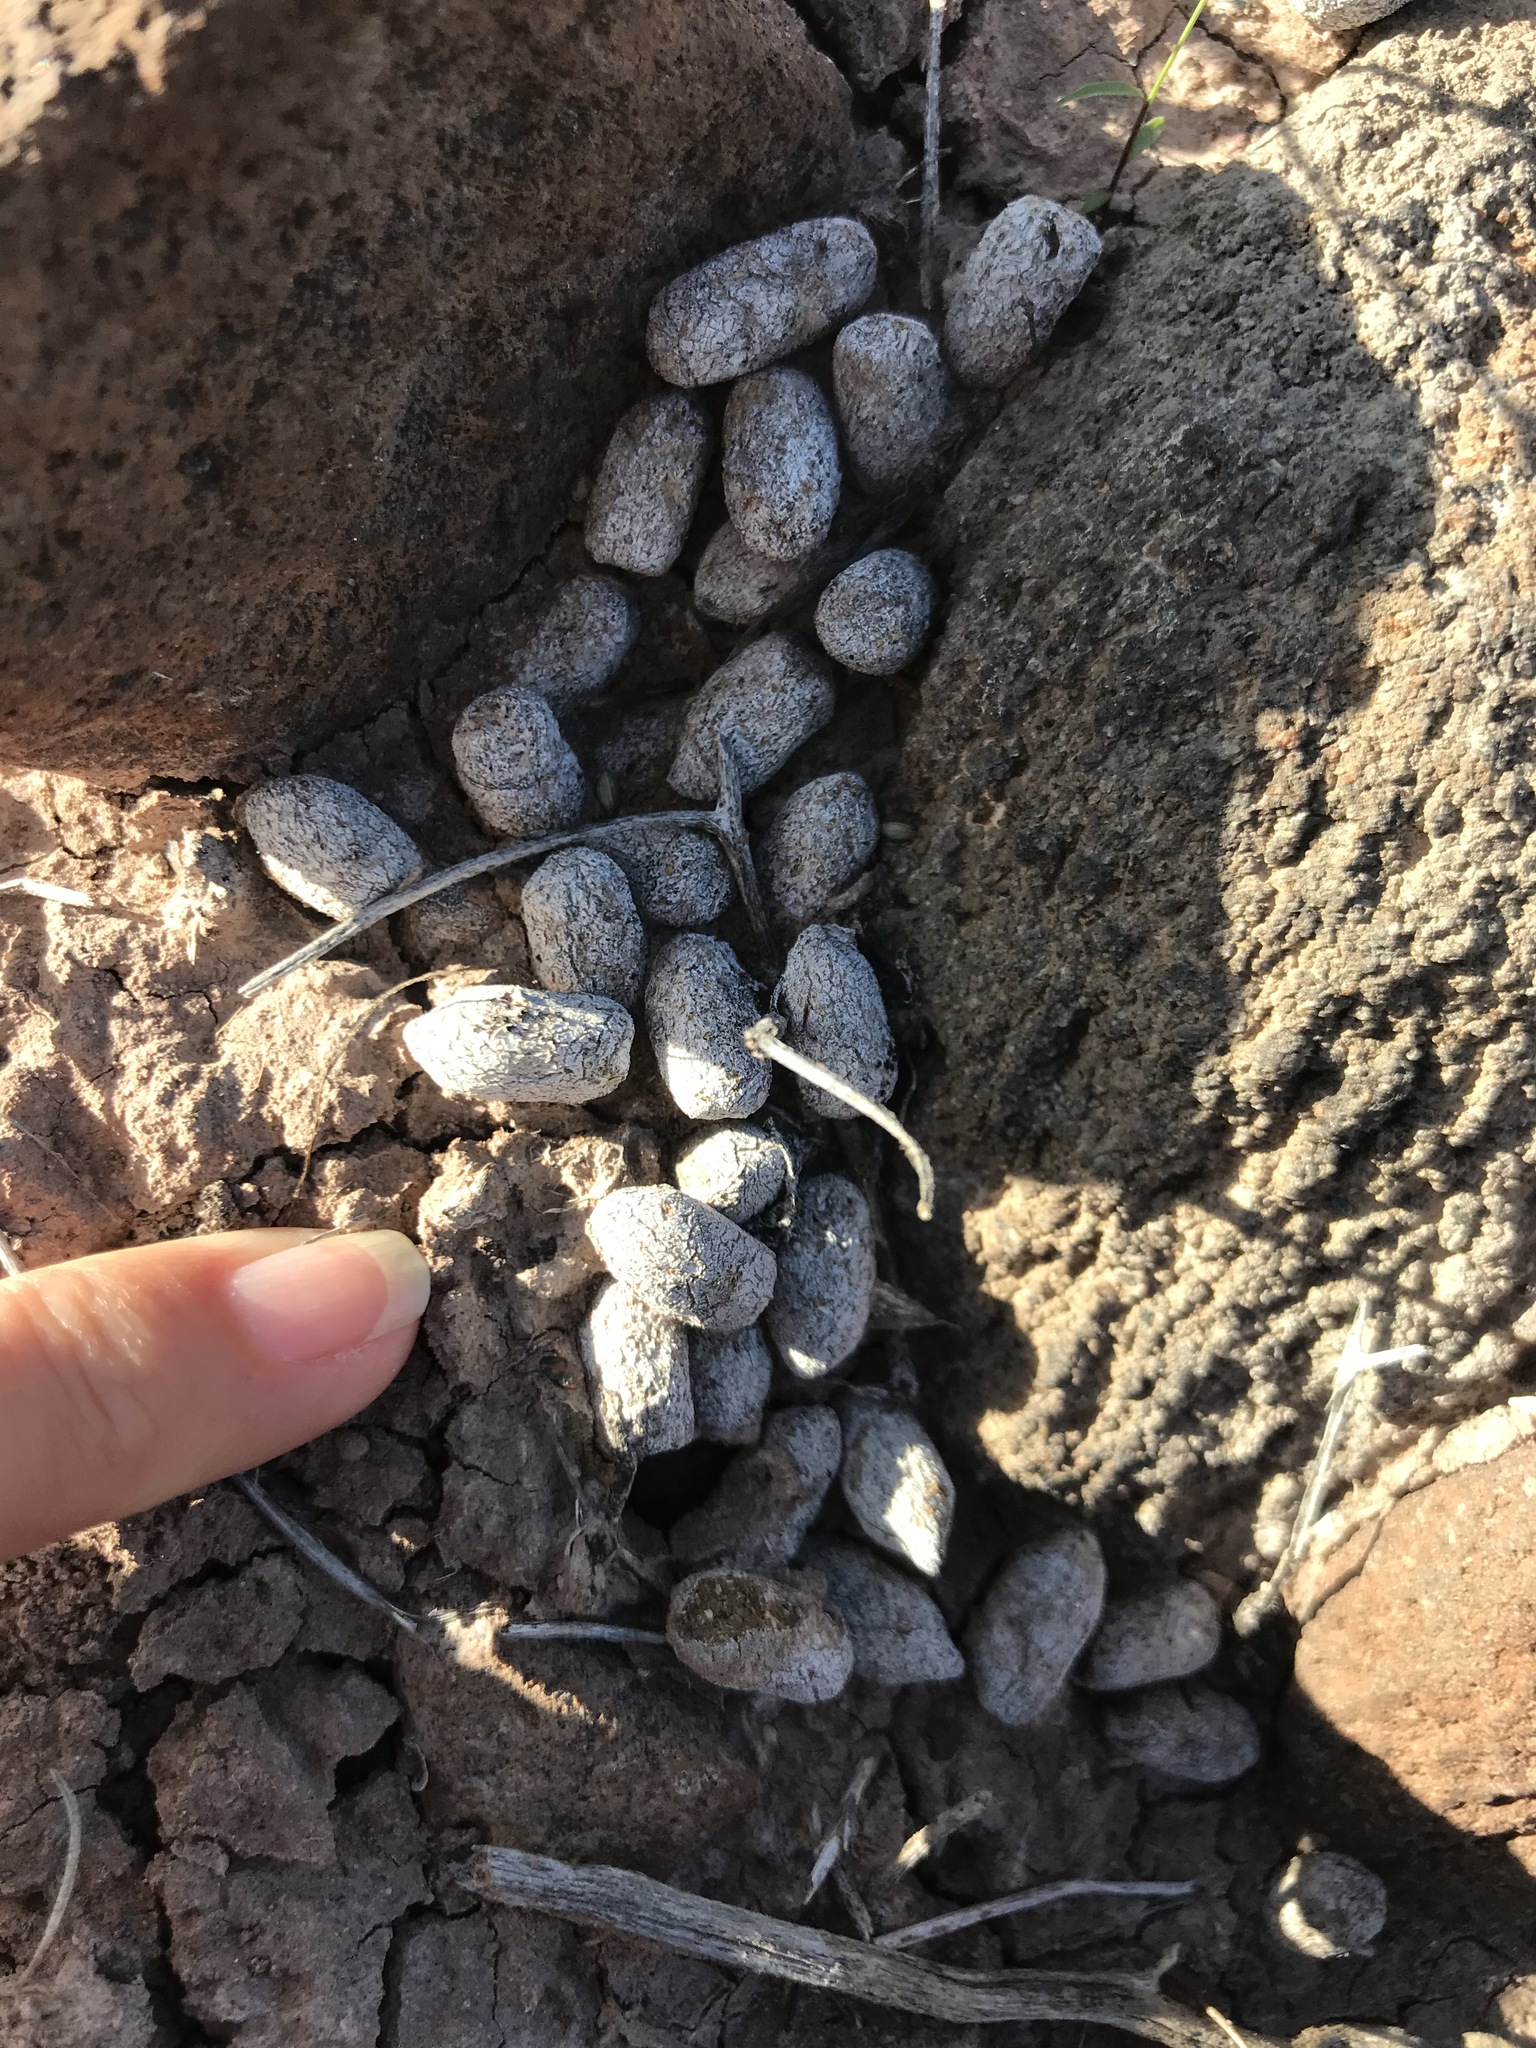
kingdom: Animalia
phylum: Chordata
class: Mammalia
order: Artiodactyla
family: Cervidae
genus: Odocoileus
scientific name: Odocoileus hemionus
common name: Mule deer
